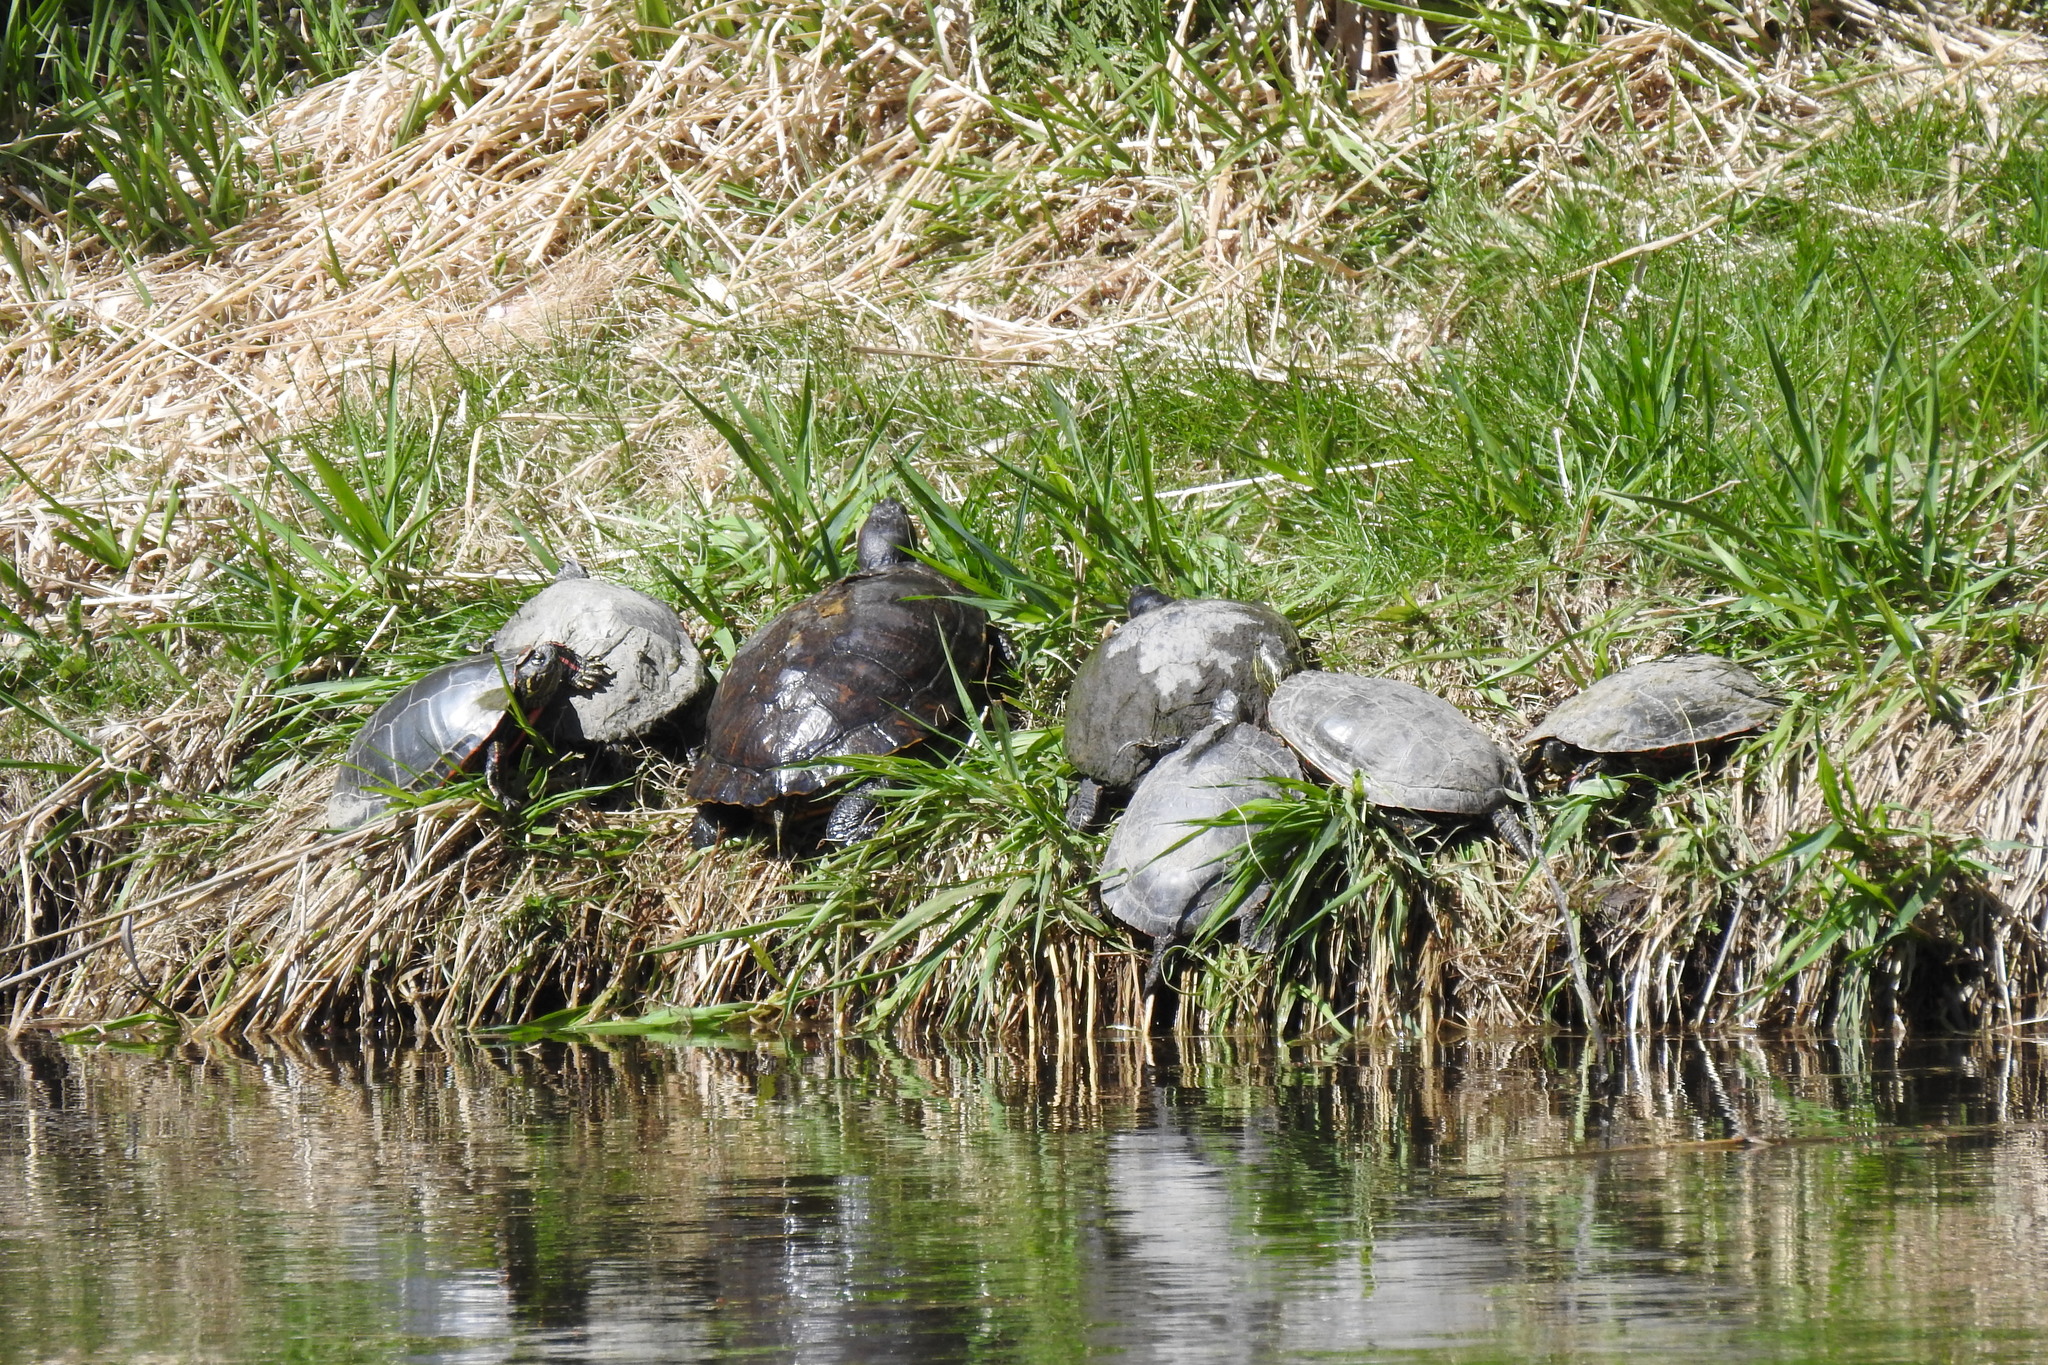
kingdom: Animalia
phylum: Chordata
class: Testudines
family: Emydidae
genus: Chrysemys
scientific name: Chrysemys picta
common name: Painted turtle
